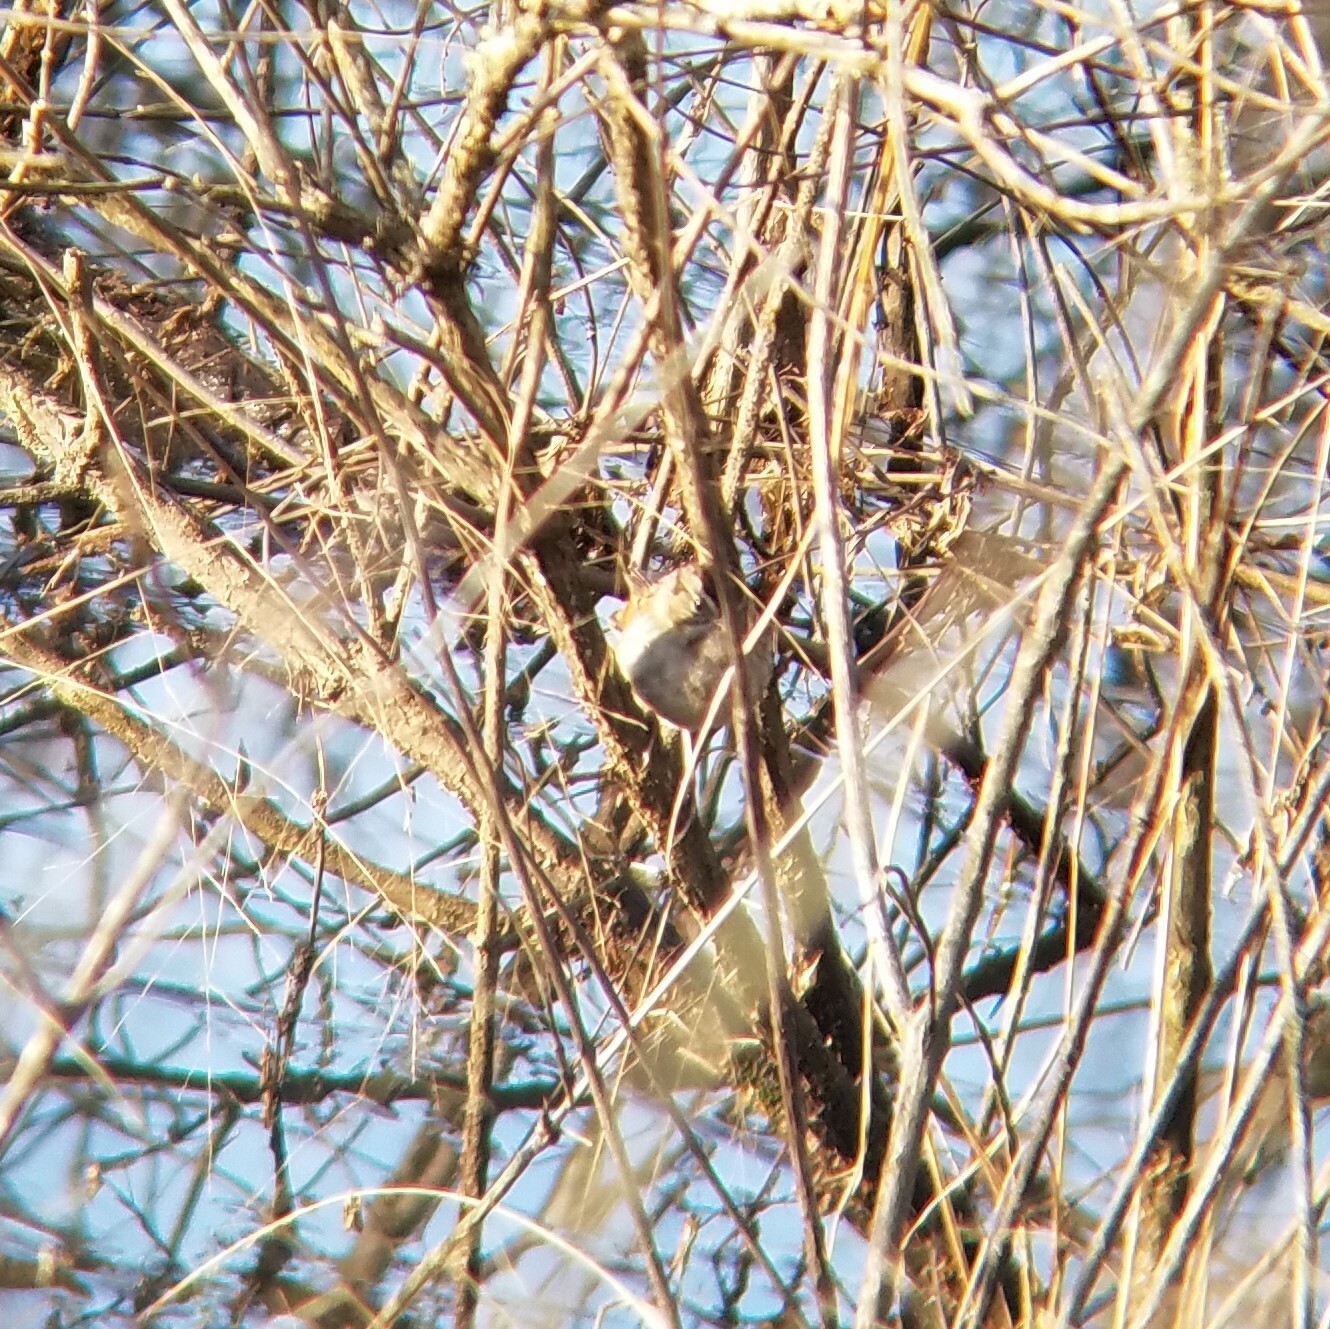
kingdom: Animalia
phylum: Chordata
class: Aves
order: Passeriformes
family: Passerellidae
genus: Melospiza
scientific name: Melospiza georgiana
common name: Swamp sparrow
